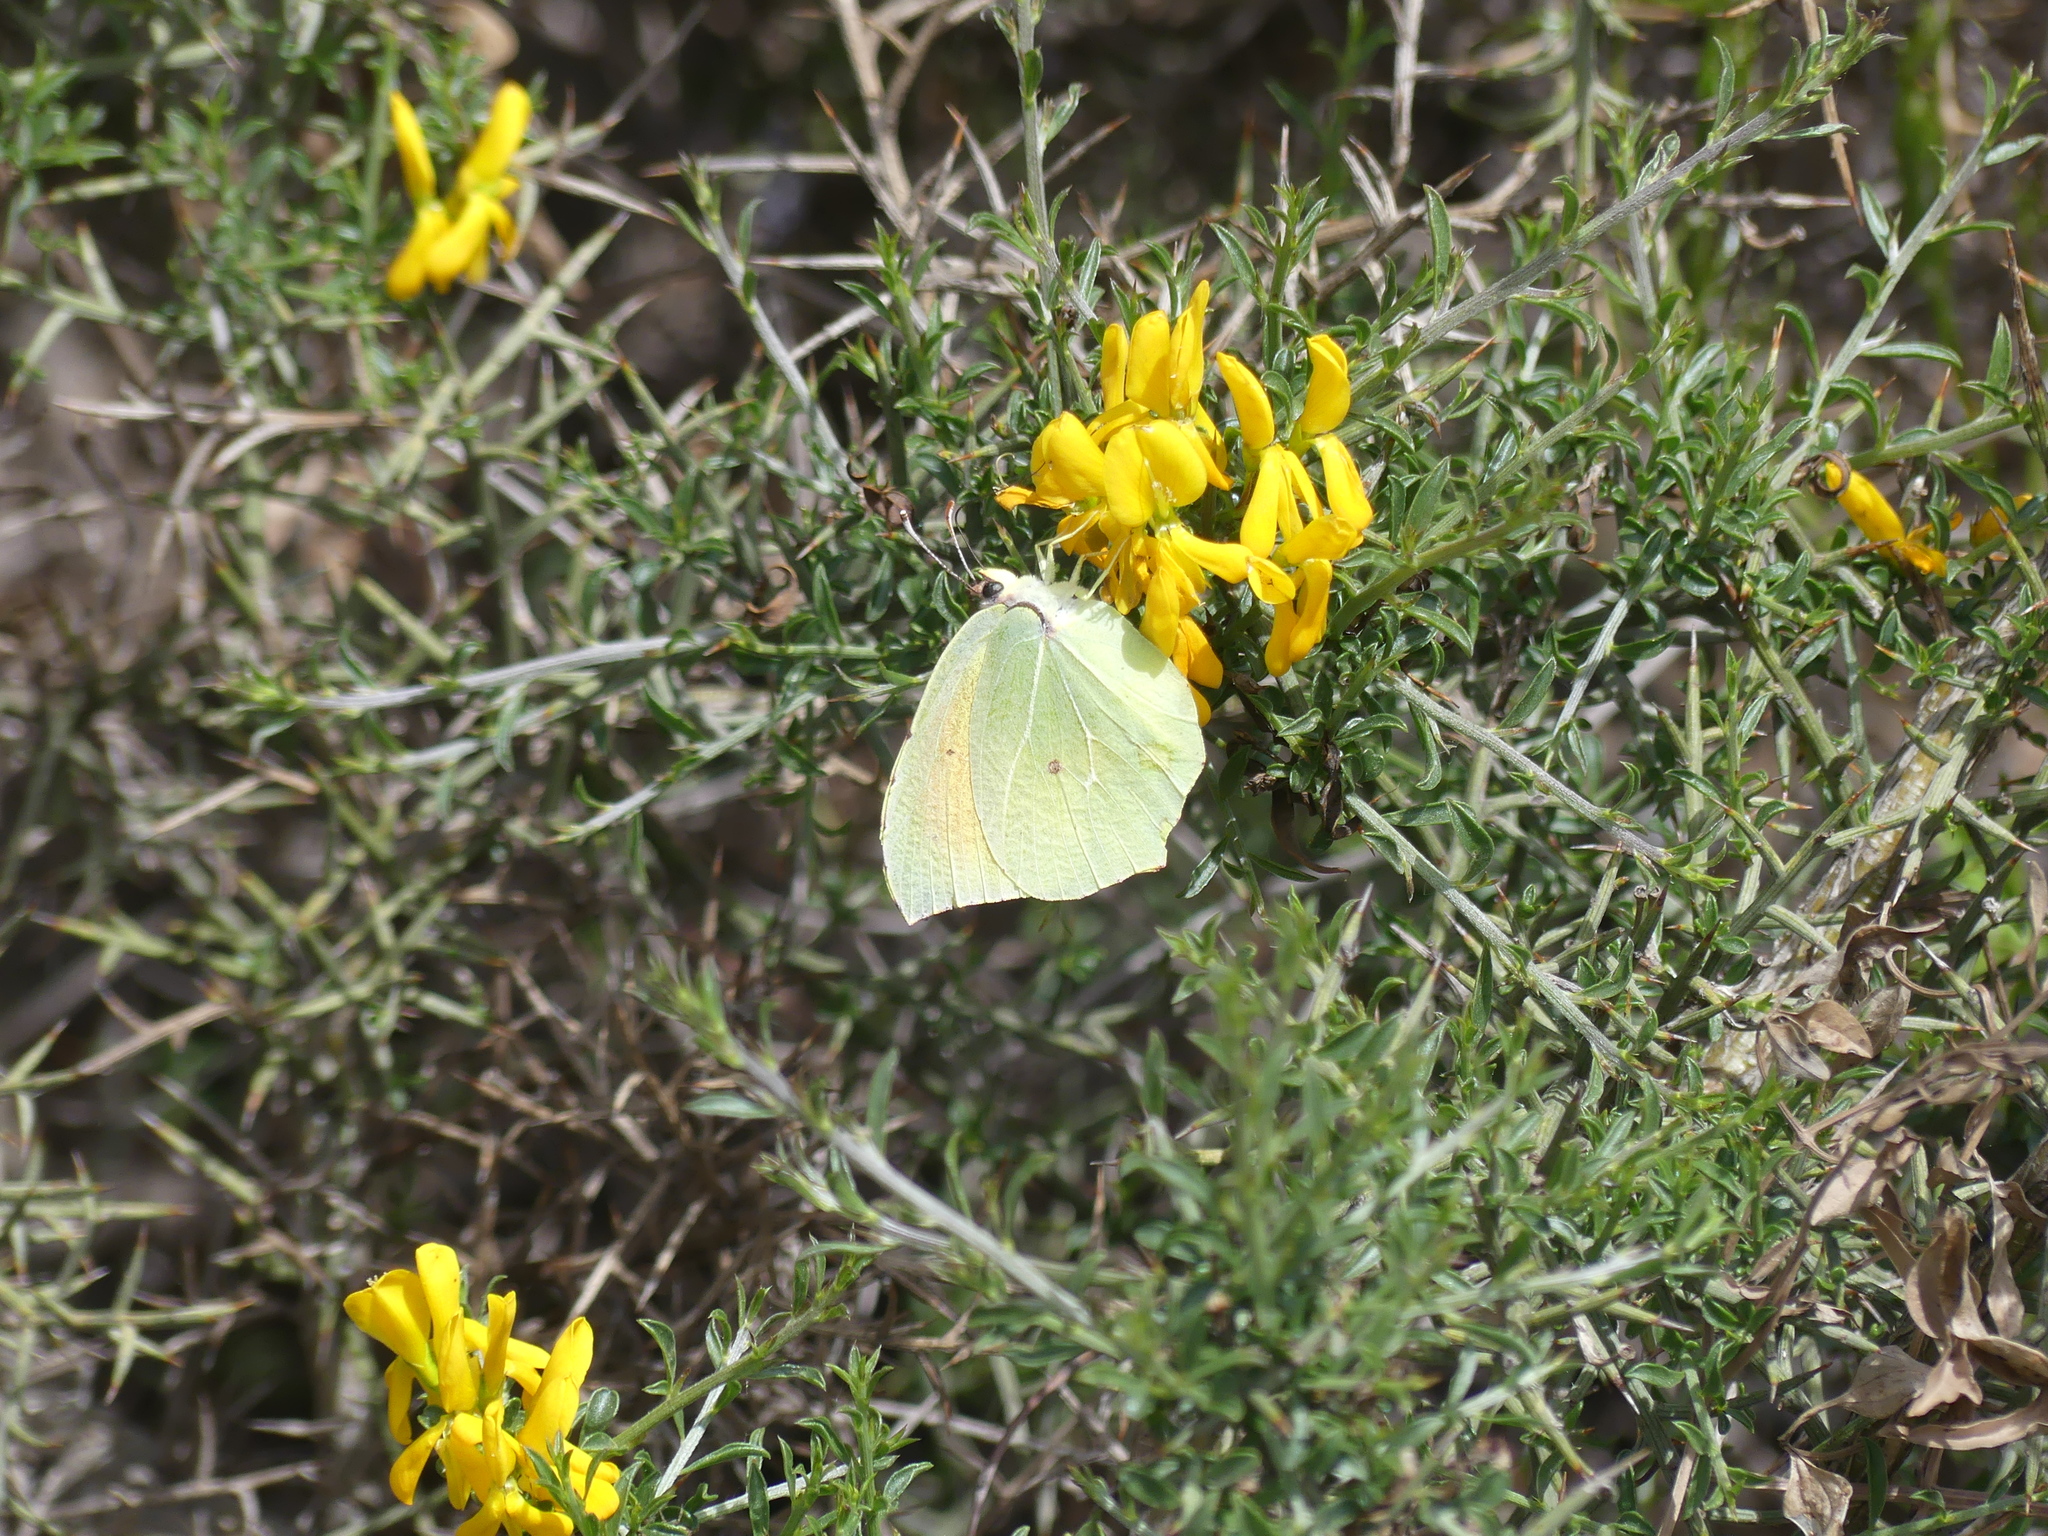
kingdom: Animalia
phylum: Arthropoda
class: Insecta
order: Lepidoptera
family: Pieridae
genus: Gonepteryx
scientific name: Gonepteryx cleopatra
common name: Cleopatra
